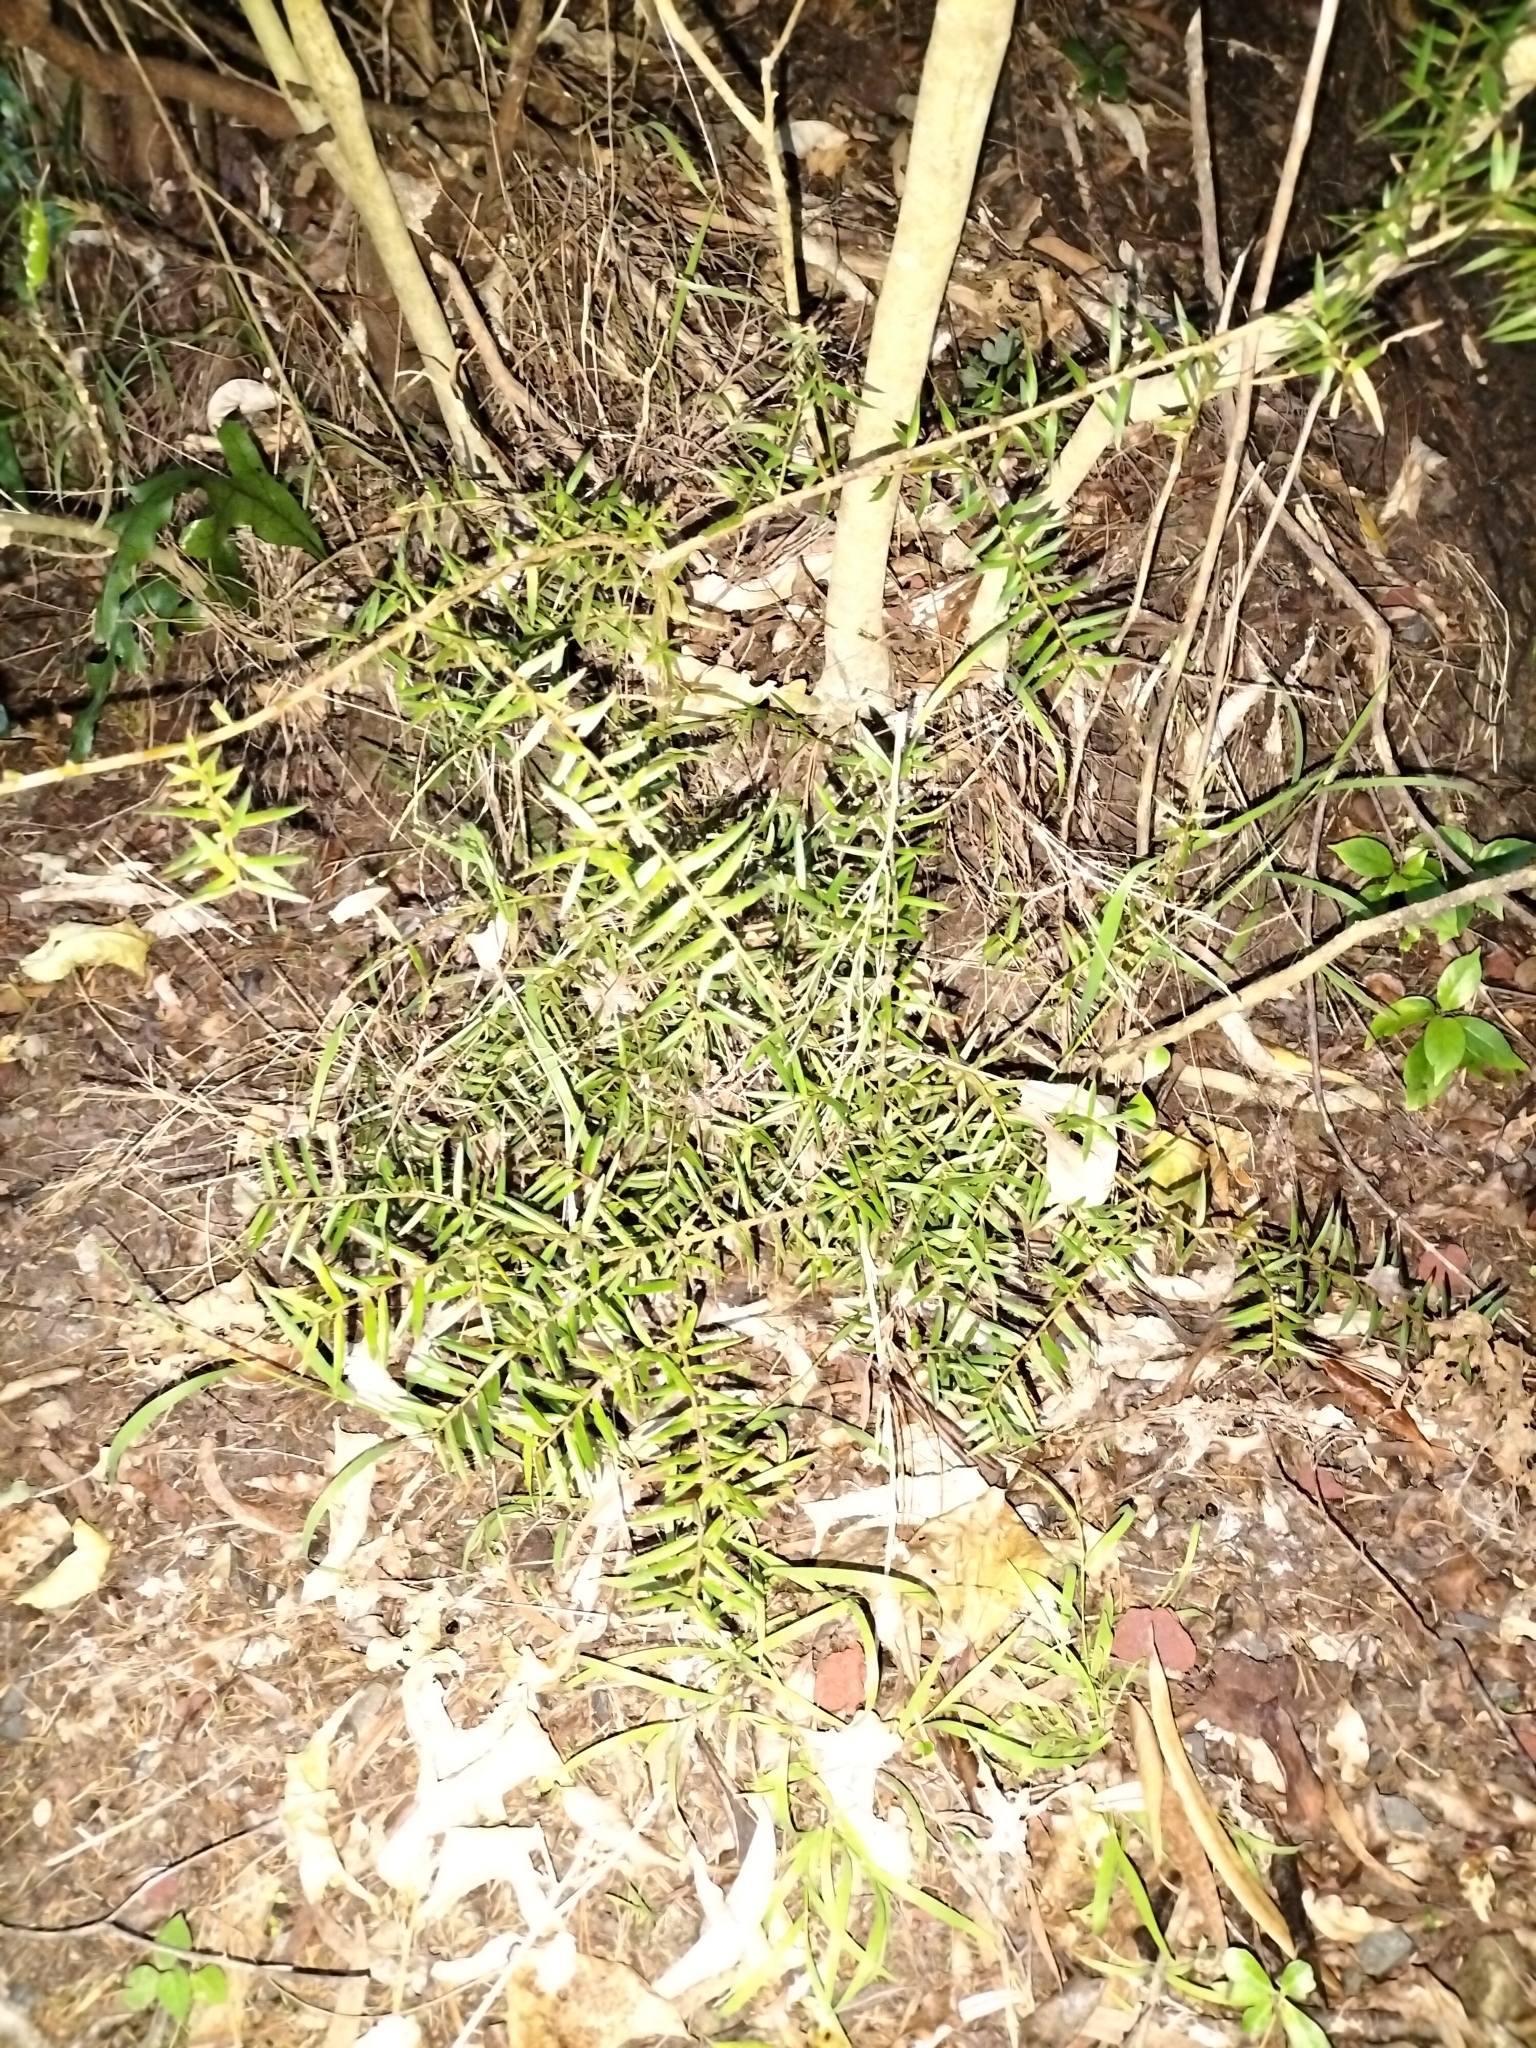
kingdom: Plantae
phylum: Tracheophyta
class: Pinopsida
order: Pinales
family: Podocarpaceae
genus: Podocarpus
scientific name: Podocarpus totara
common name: Totara
